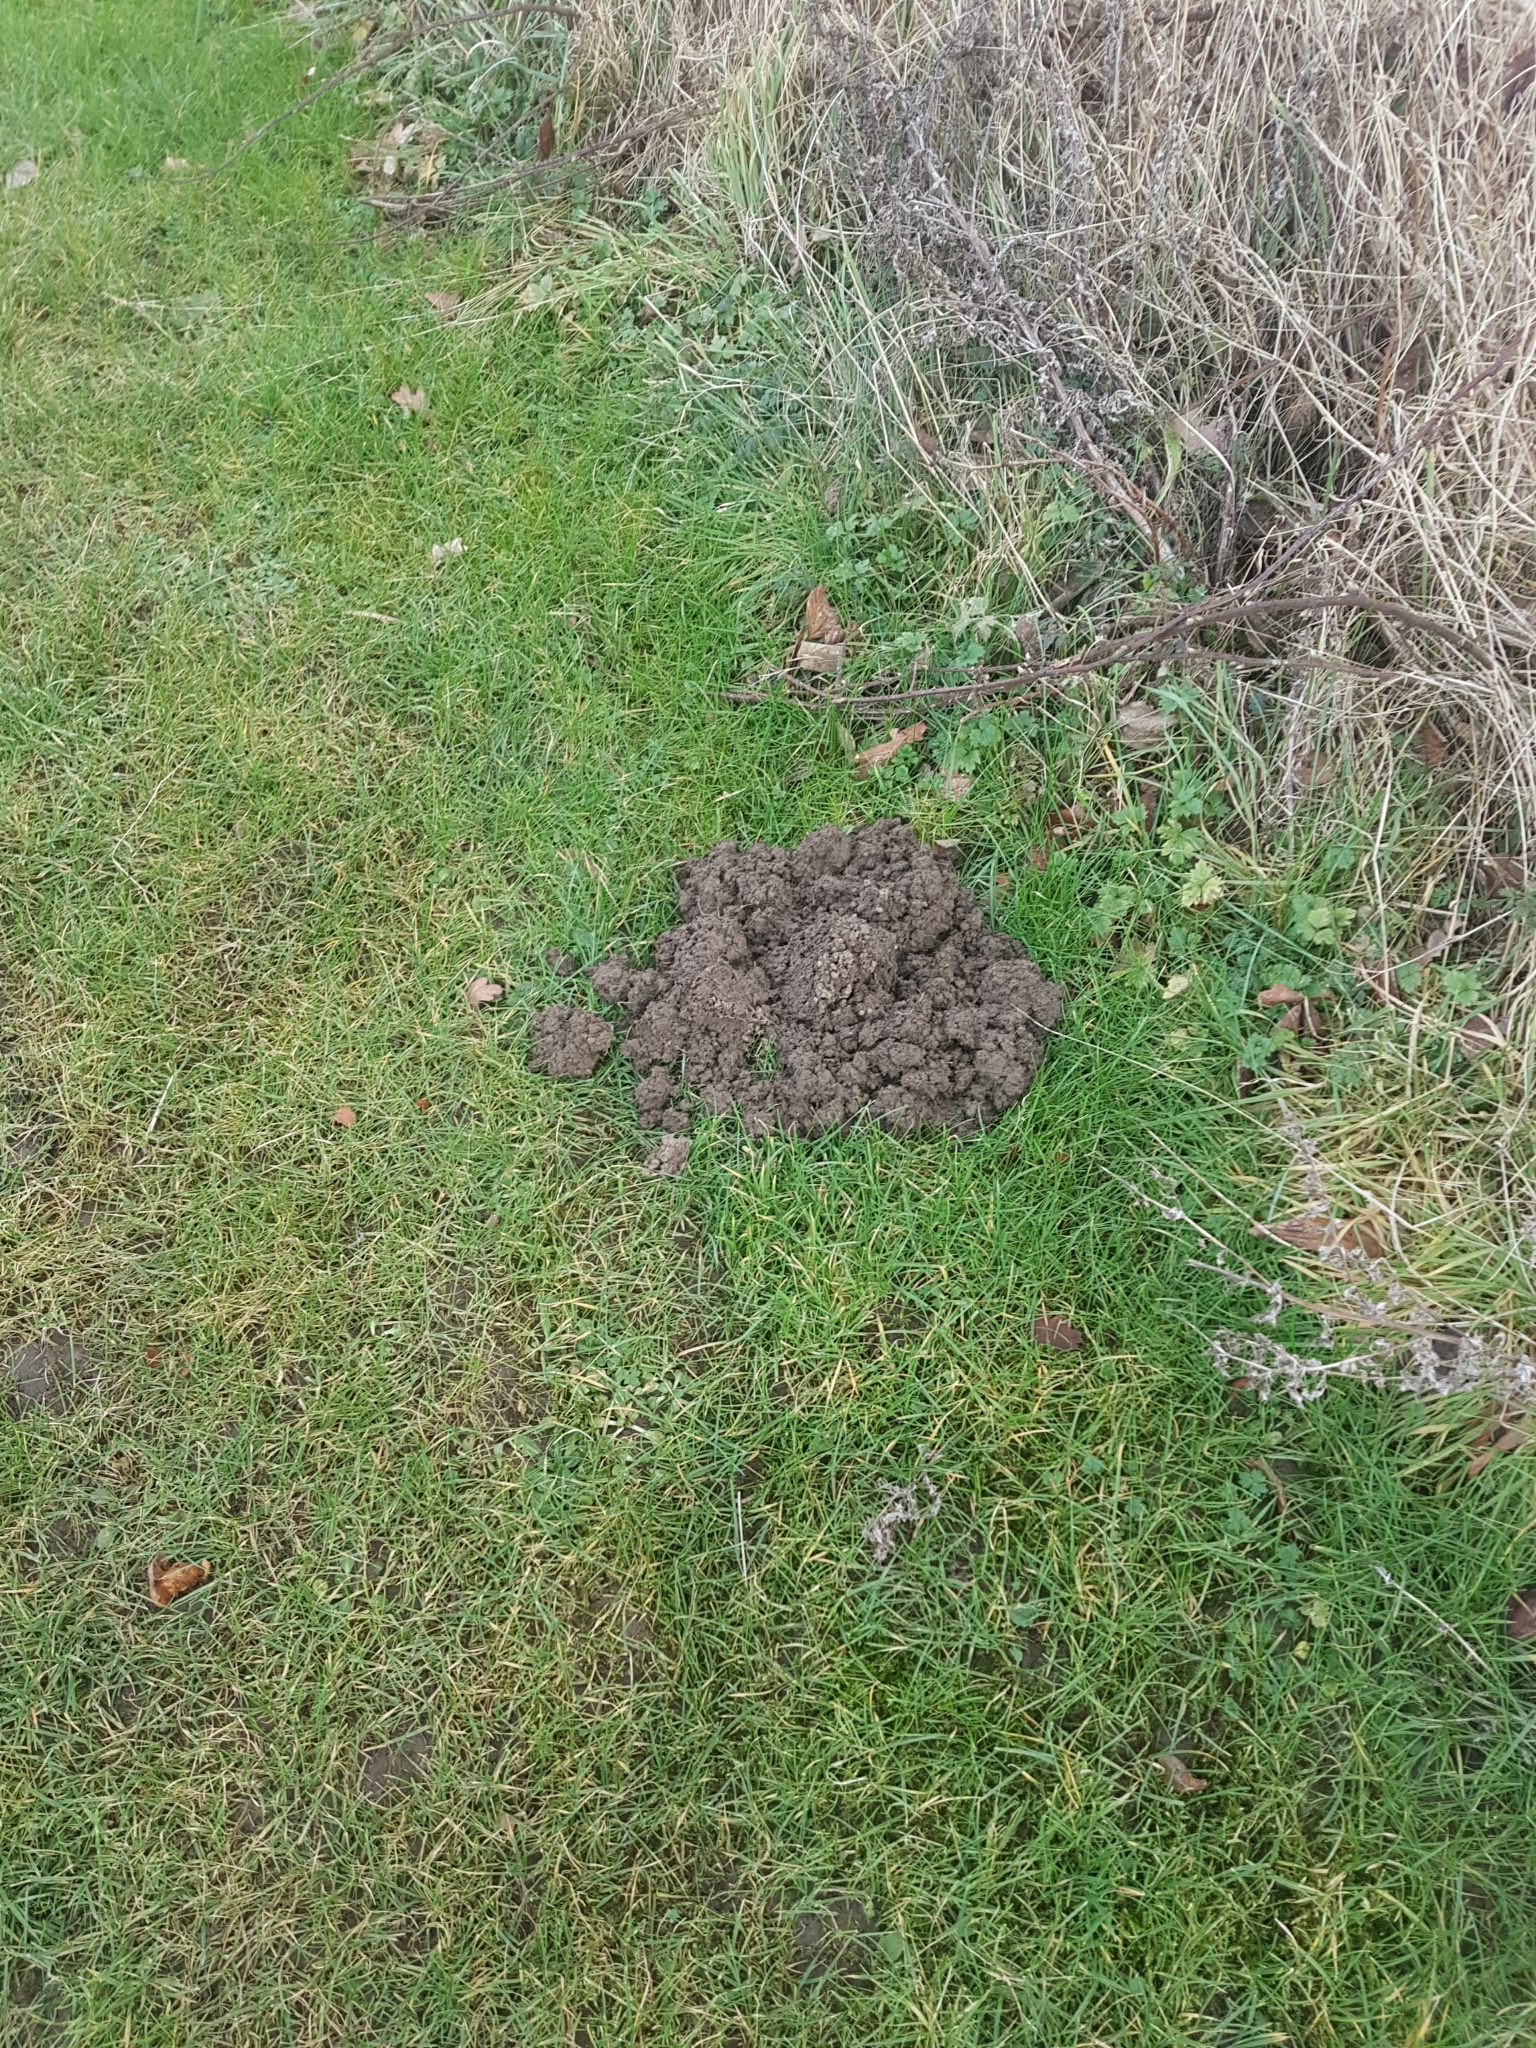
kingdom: Animalia
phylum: Chordata
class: Mammalia
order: Soricomorpha
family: Talpidae
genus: Talpa
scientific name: Talpa europaea
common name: European mole
